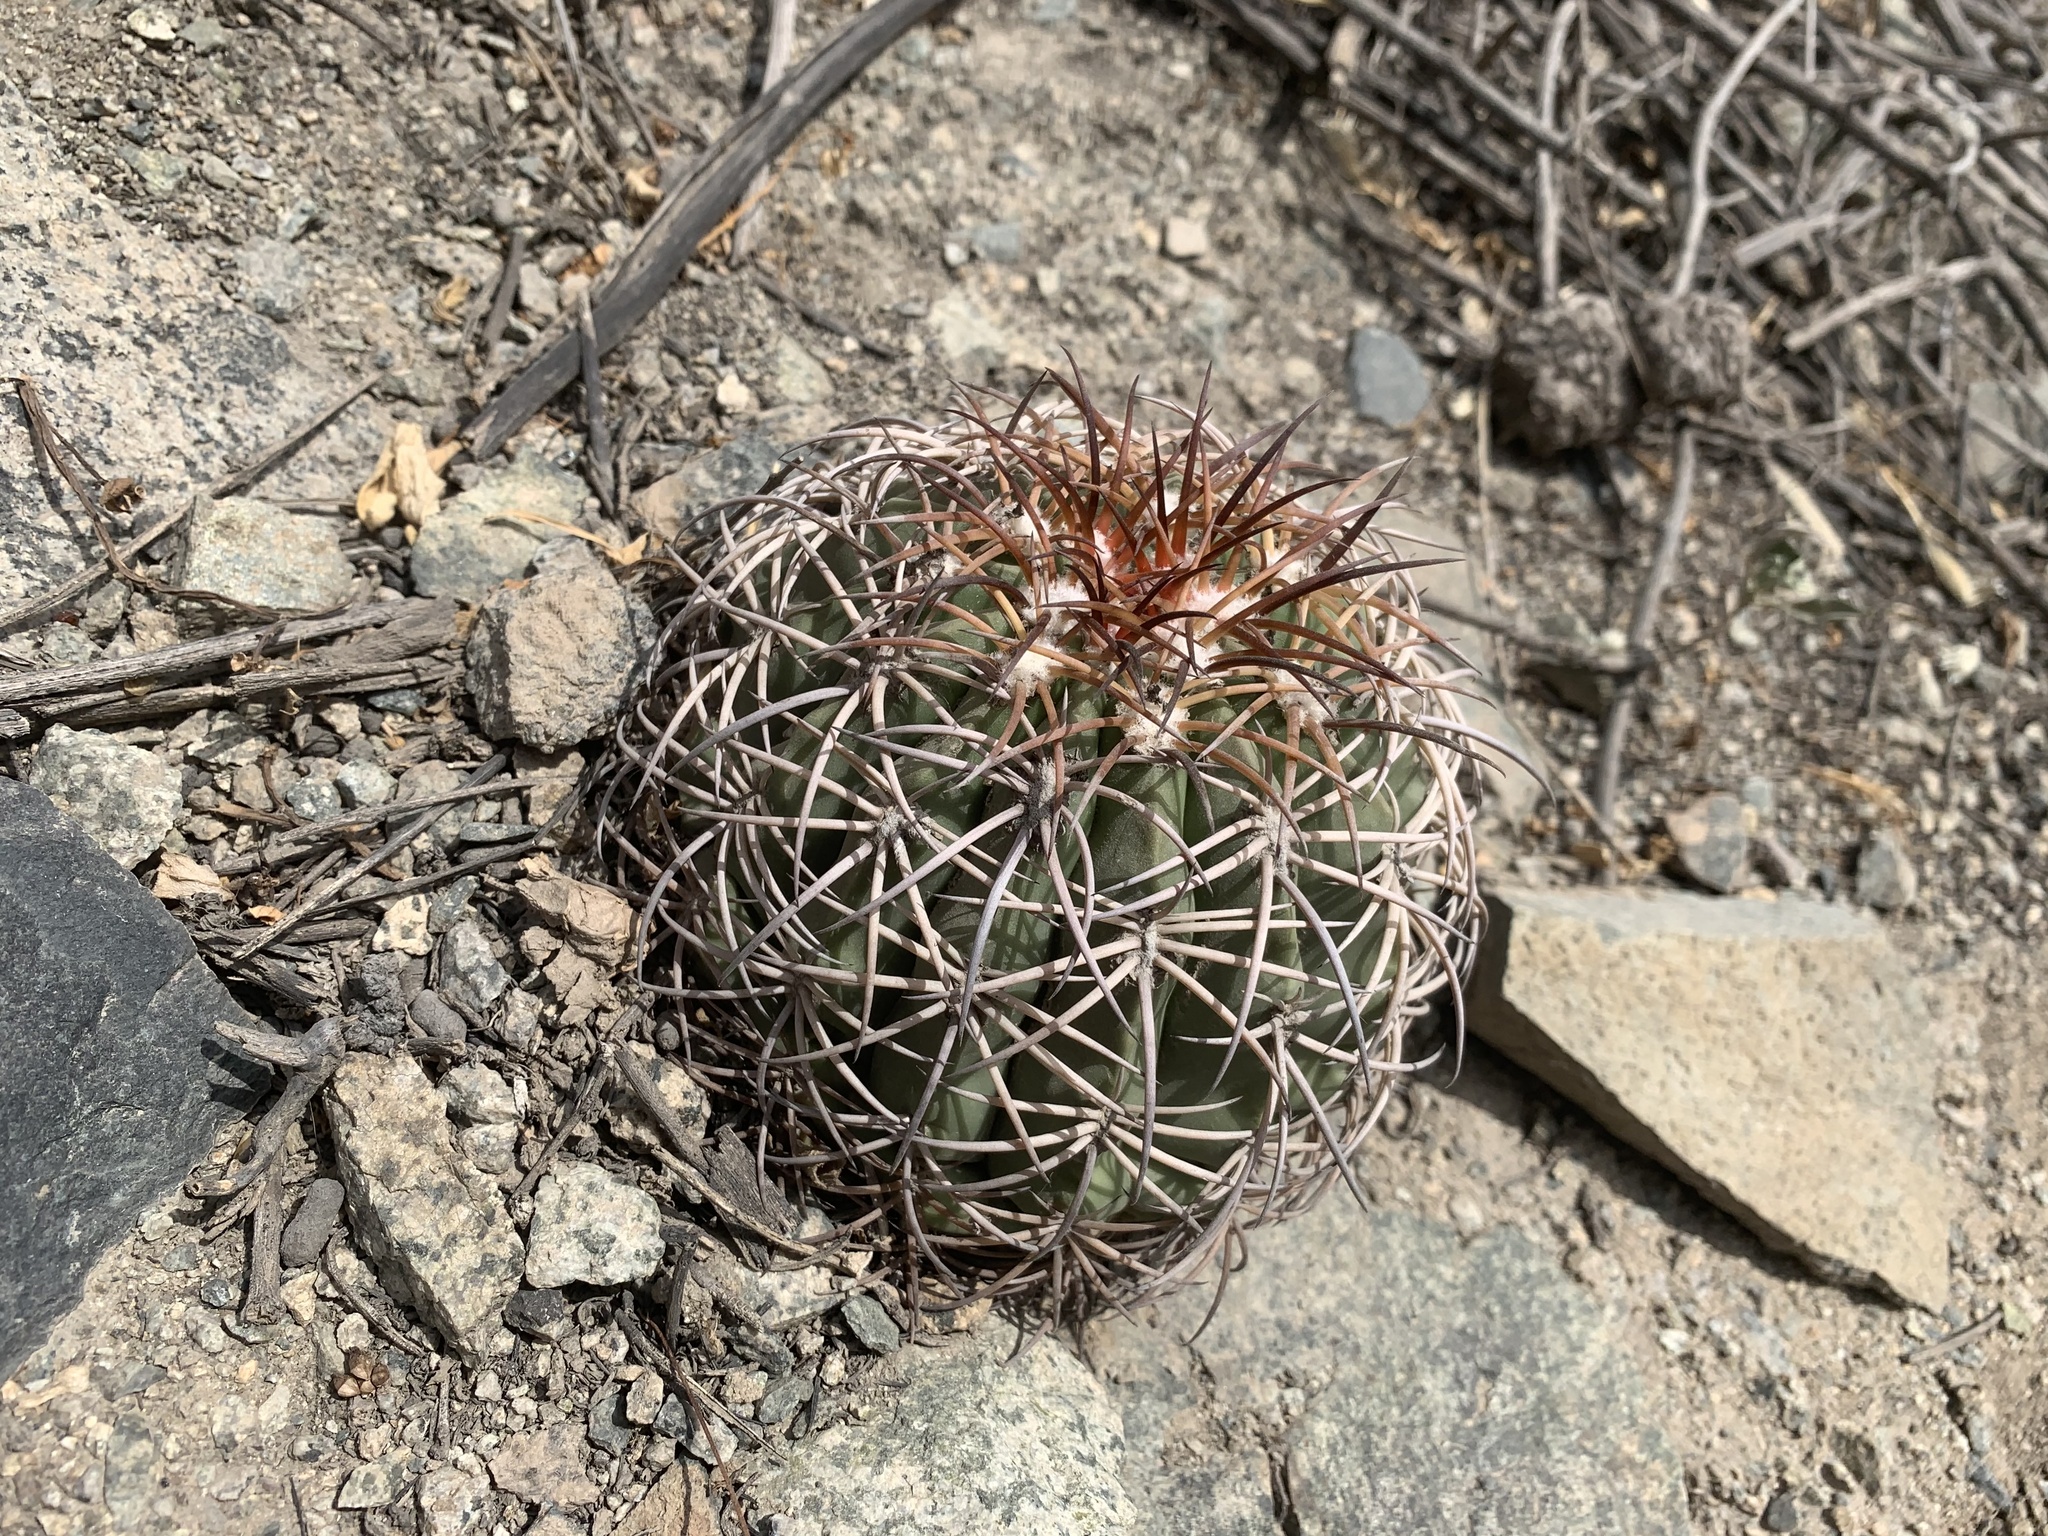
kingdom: Plantae
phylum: Tracheophyta
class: Magnoliopsida
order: Caryophyllales
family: Cactaceae
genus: Melocactus
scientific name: Melocactus peruvianus
